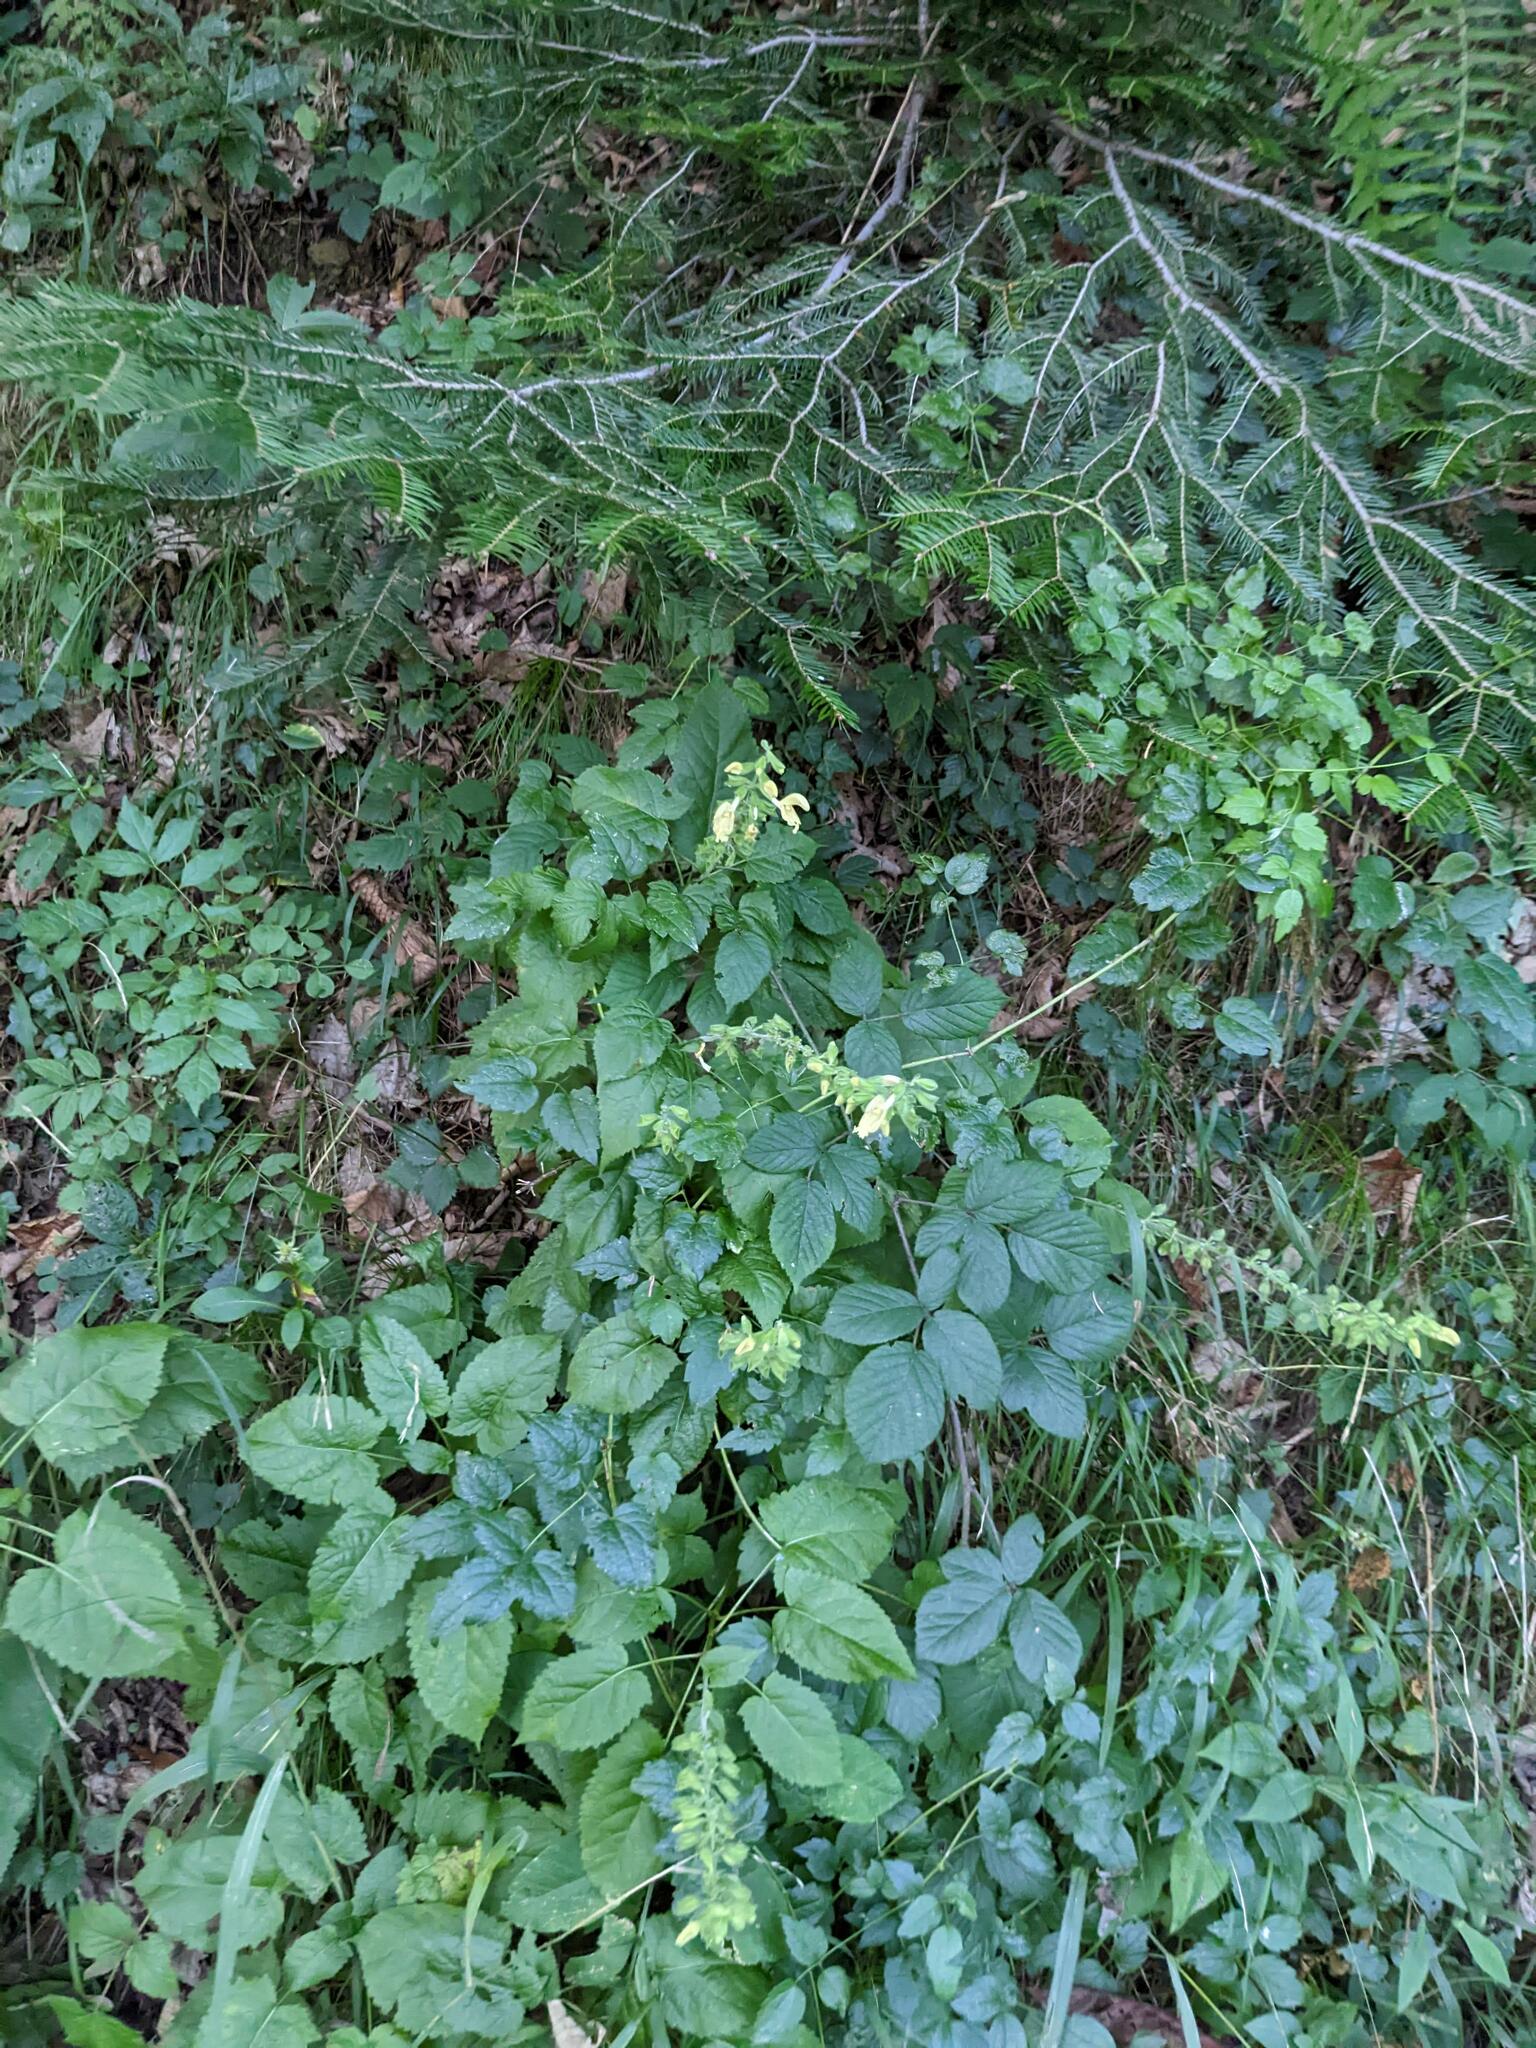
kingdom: Plantae
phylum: Tracheophyta
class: Magnoliopsida
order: Lamiales
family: Lamiaceae
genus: Salvia
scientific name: Salvia glutinosa
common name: Sticky clary
